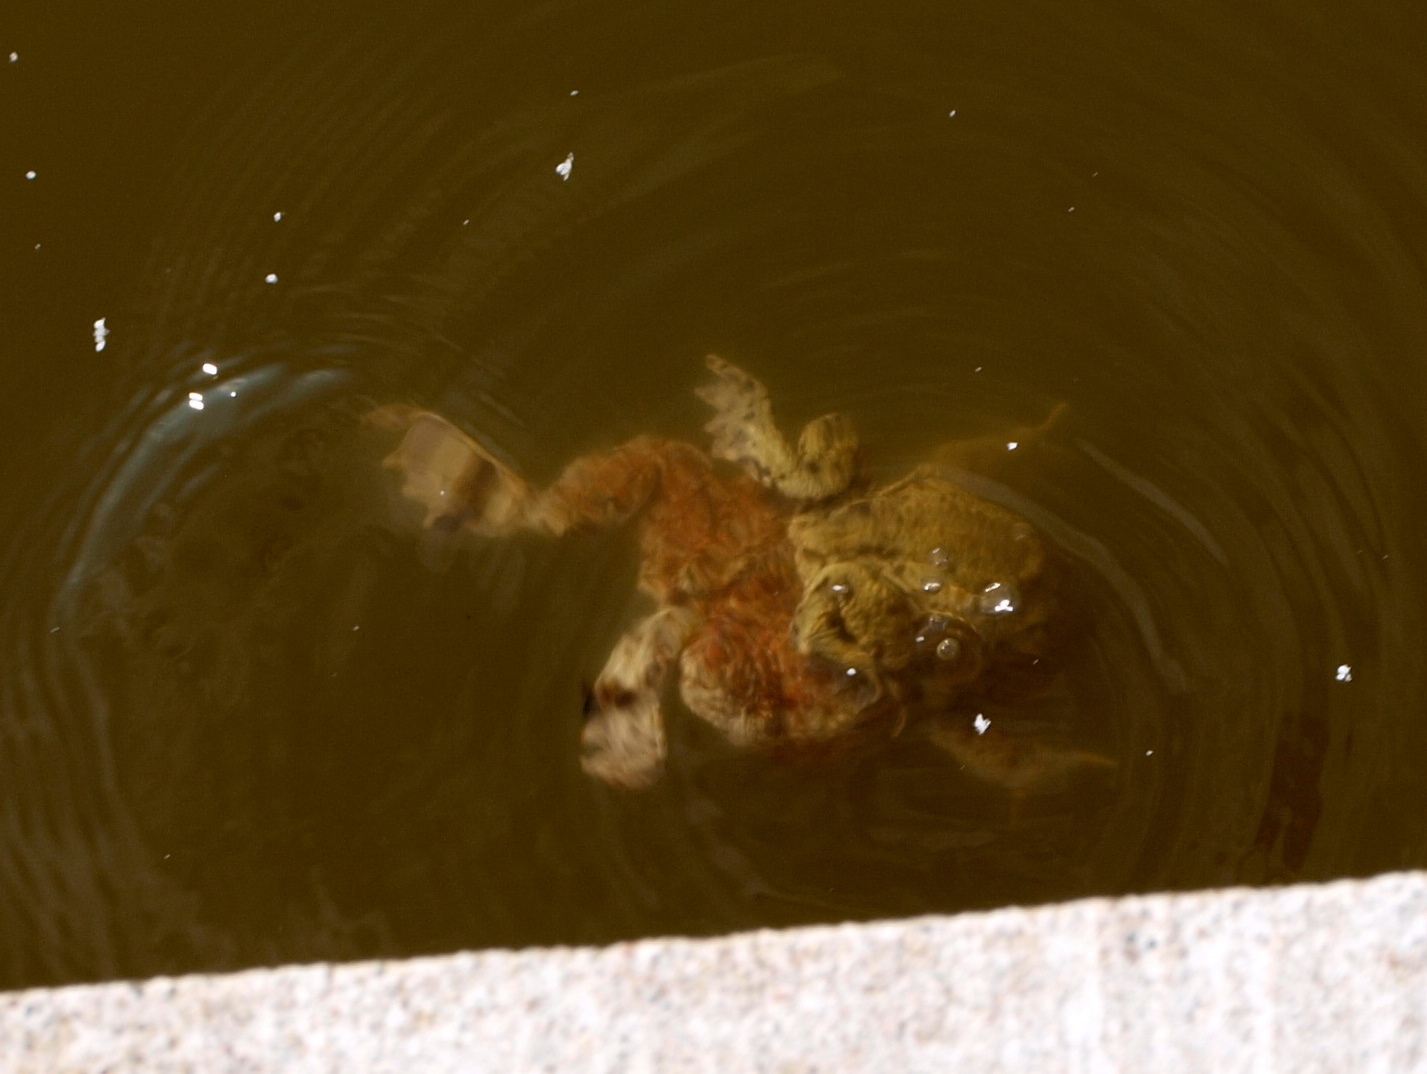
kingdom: Animalia
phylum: Chordata
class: Amphibia
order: Anura
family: Bufonidae
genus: Bufo
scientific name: Bufo bufo
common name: Common toad
